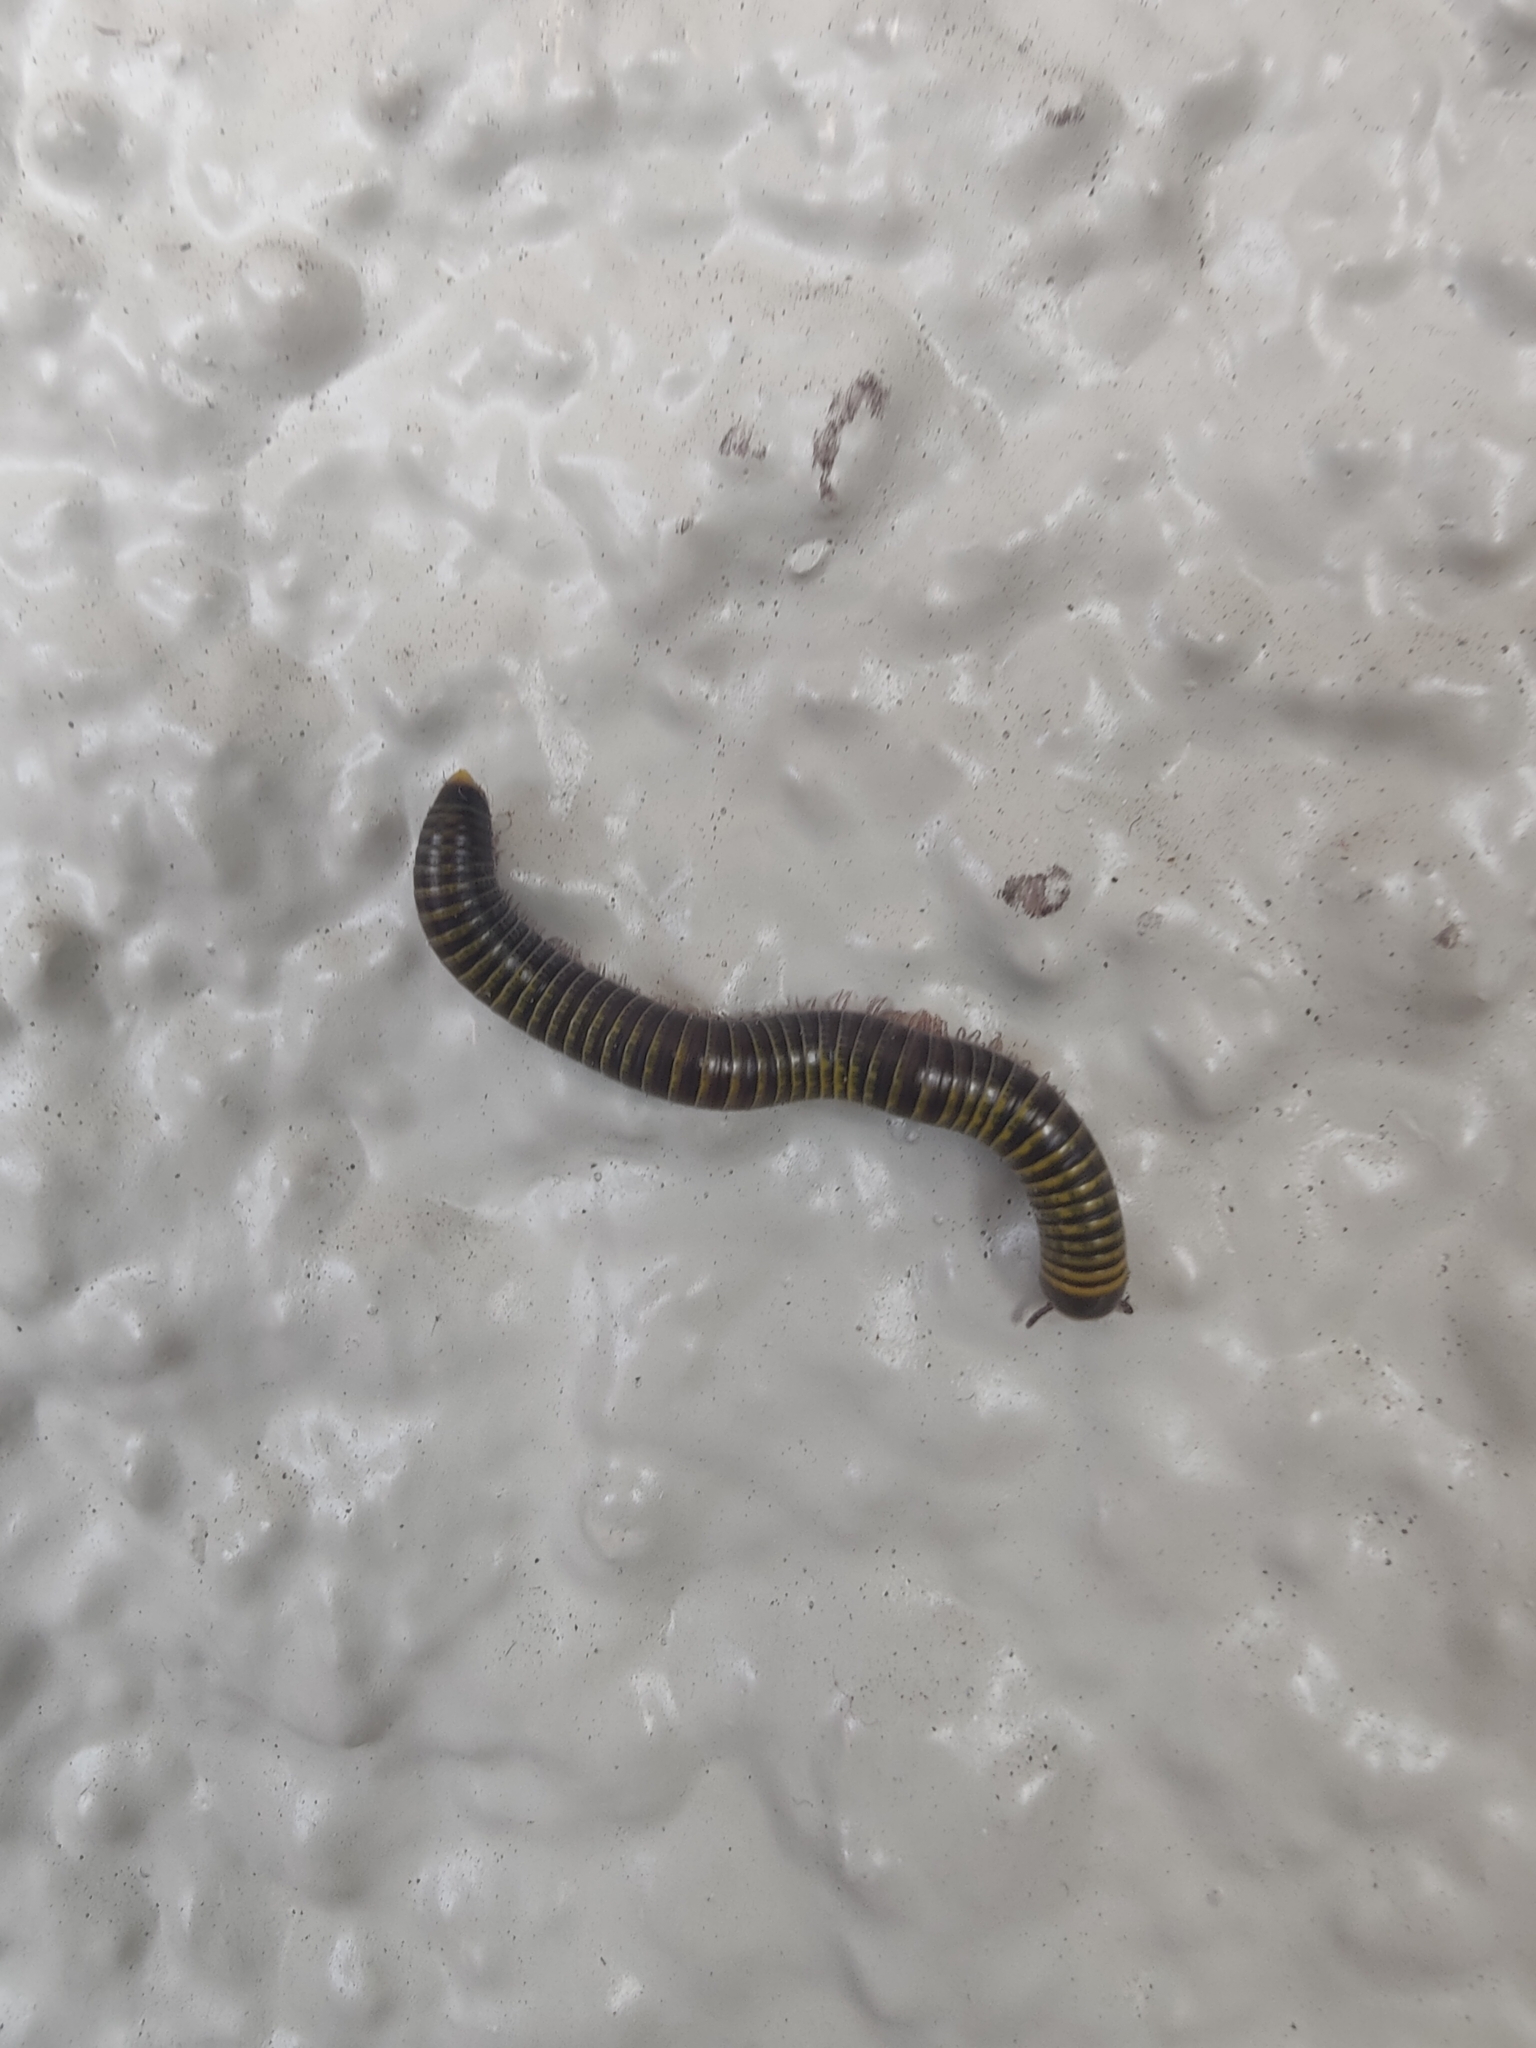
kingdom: Animalia
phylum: Arthropoda
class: Diplopoda
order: Spirobolida
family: Rhinocricidae
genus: Anadenobolus
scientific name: Anadenobolus monilicornis
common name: Caribbean millipede
